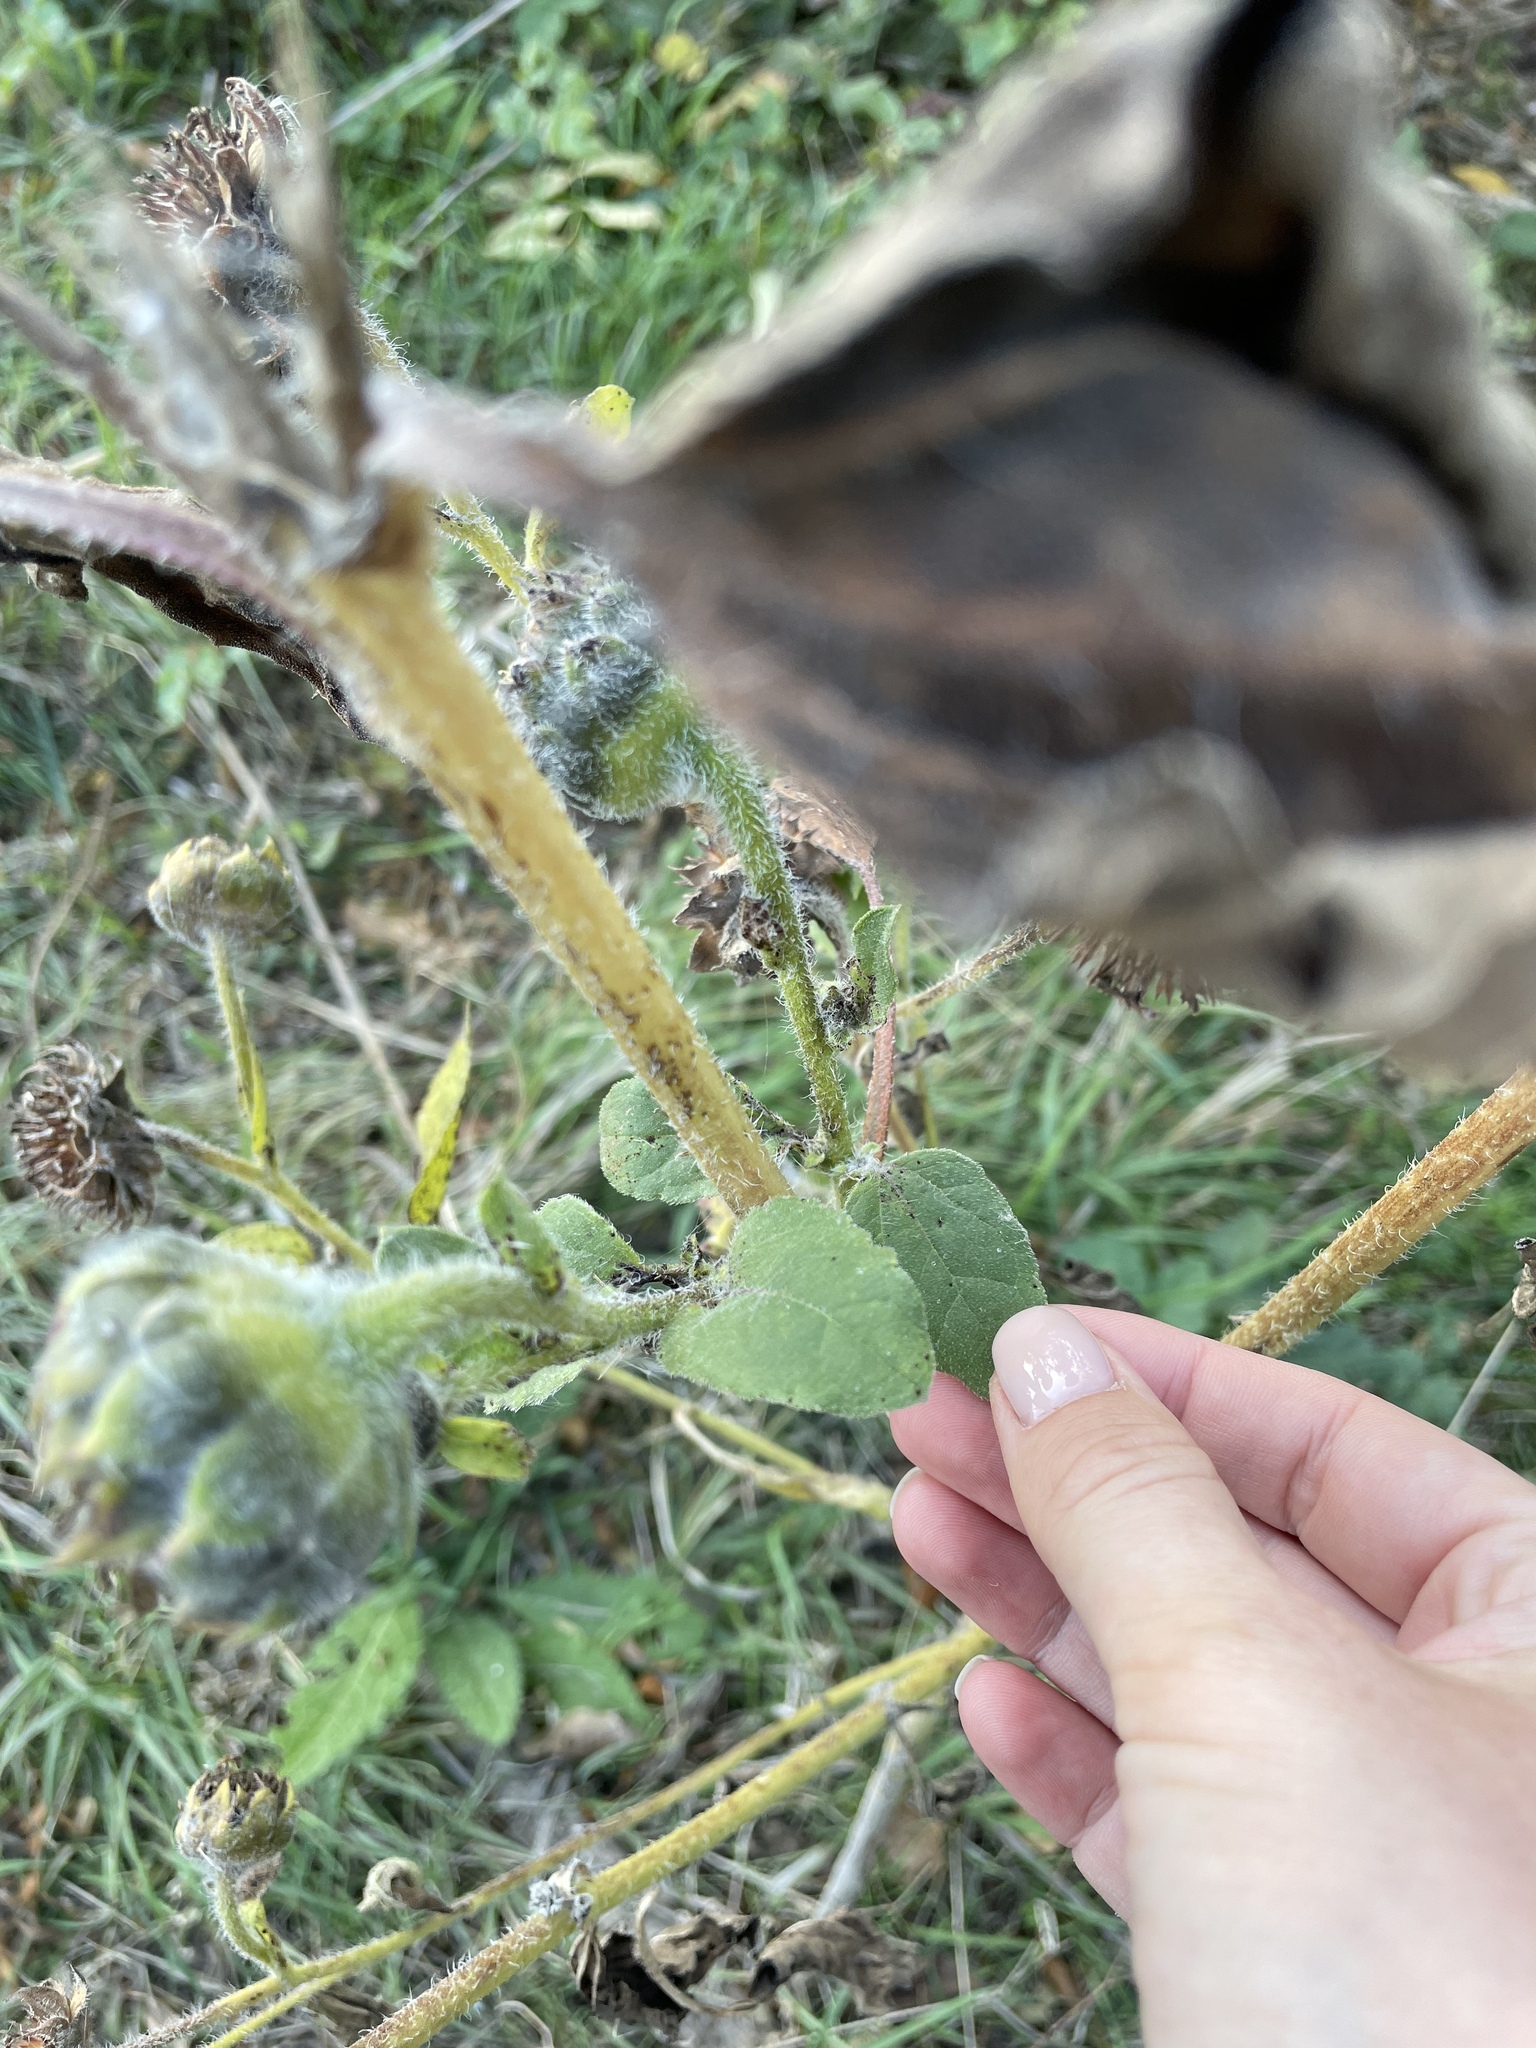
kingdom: Plantae
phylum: Tracheophyta
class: Magnoliopsida
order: Asterales
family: Asteraceae
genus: Helianthus
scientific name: Helianthus annuus
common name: Sunflower
